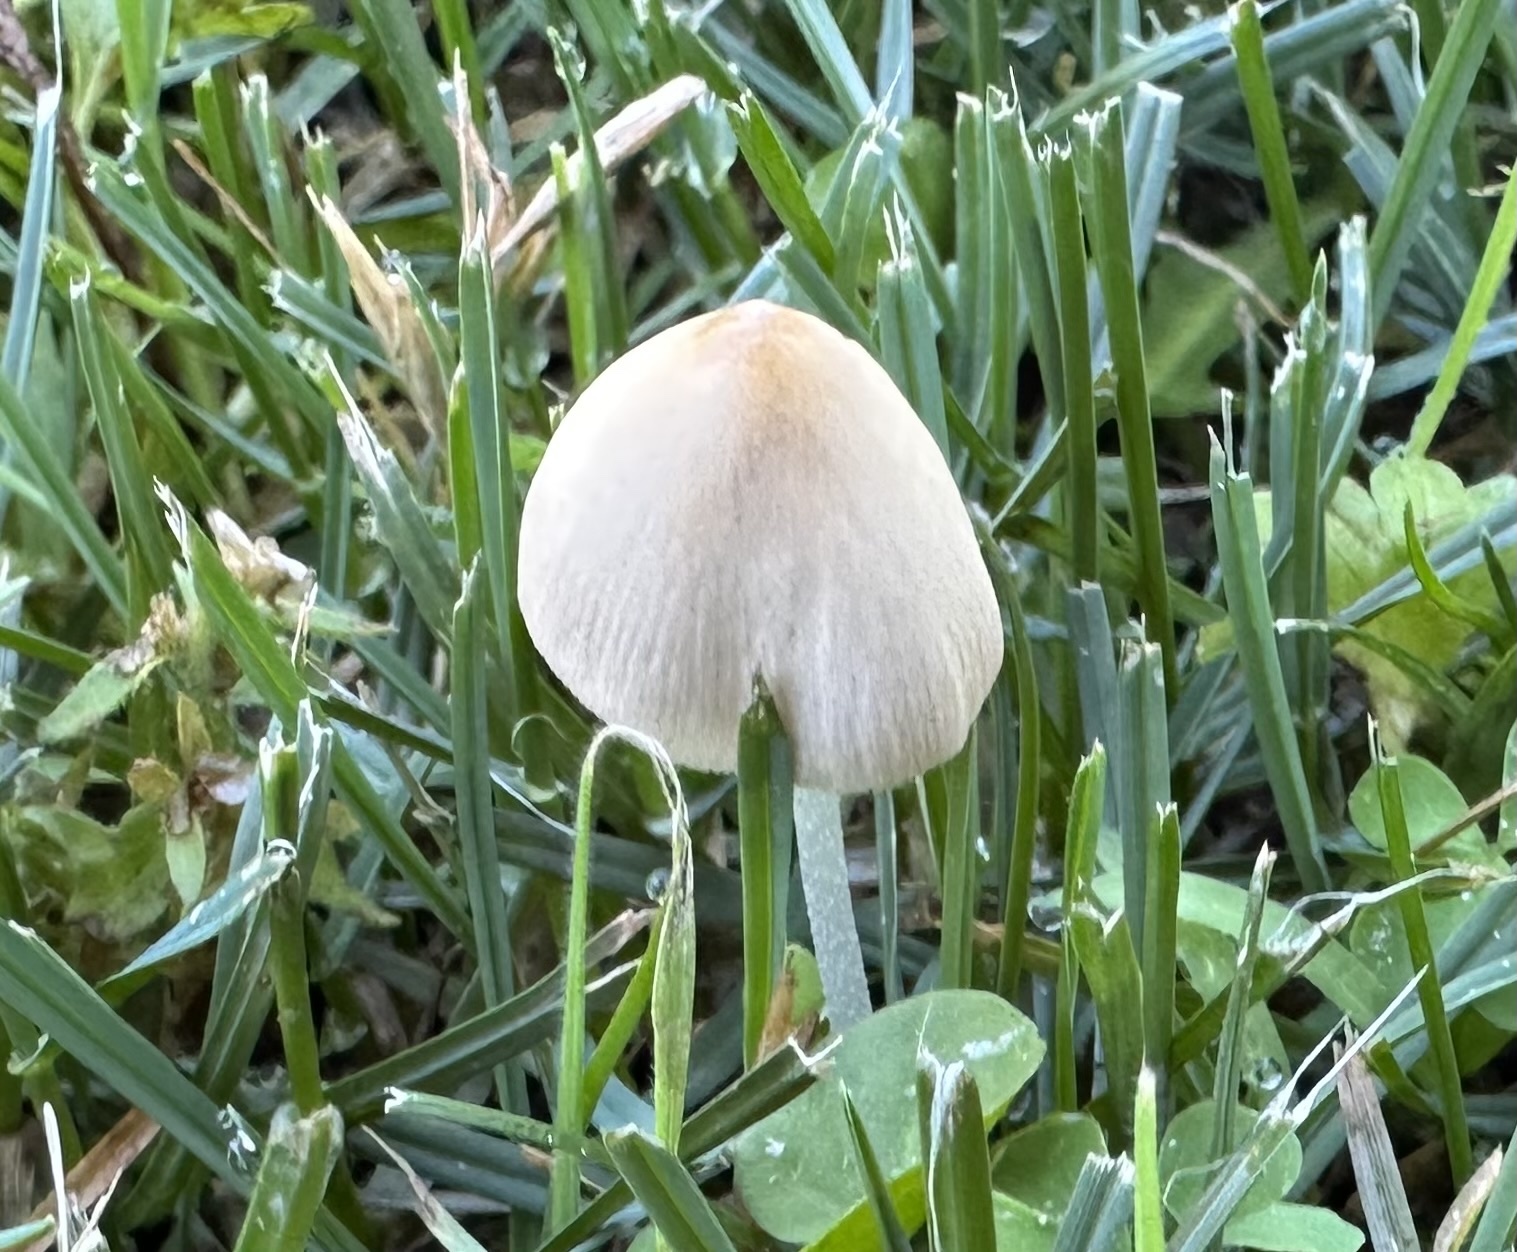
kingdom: Fungi
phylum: Basidiomycota
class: Agaricomycetes
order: Agaricales
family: Bolbitiaceae
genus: Conocybe
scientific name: Conocybe apala
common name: Milky conecap
